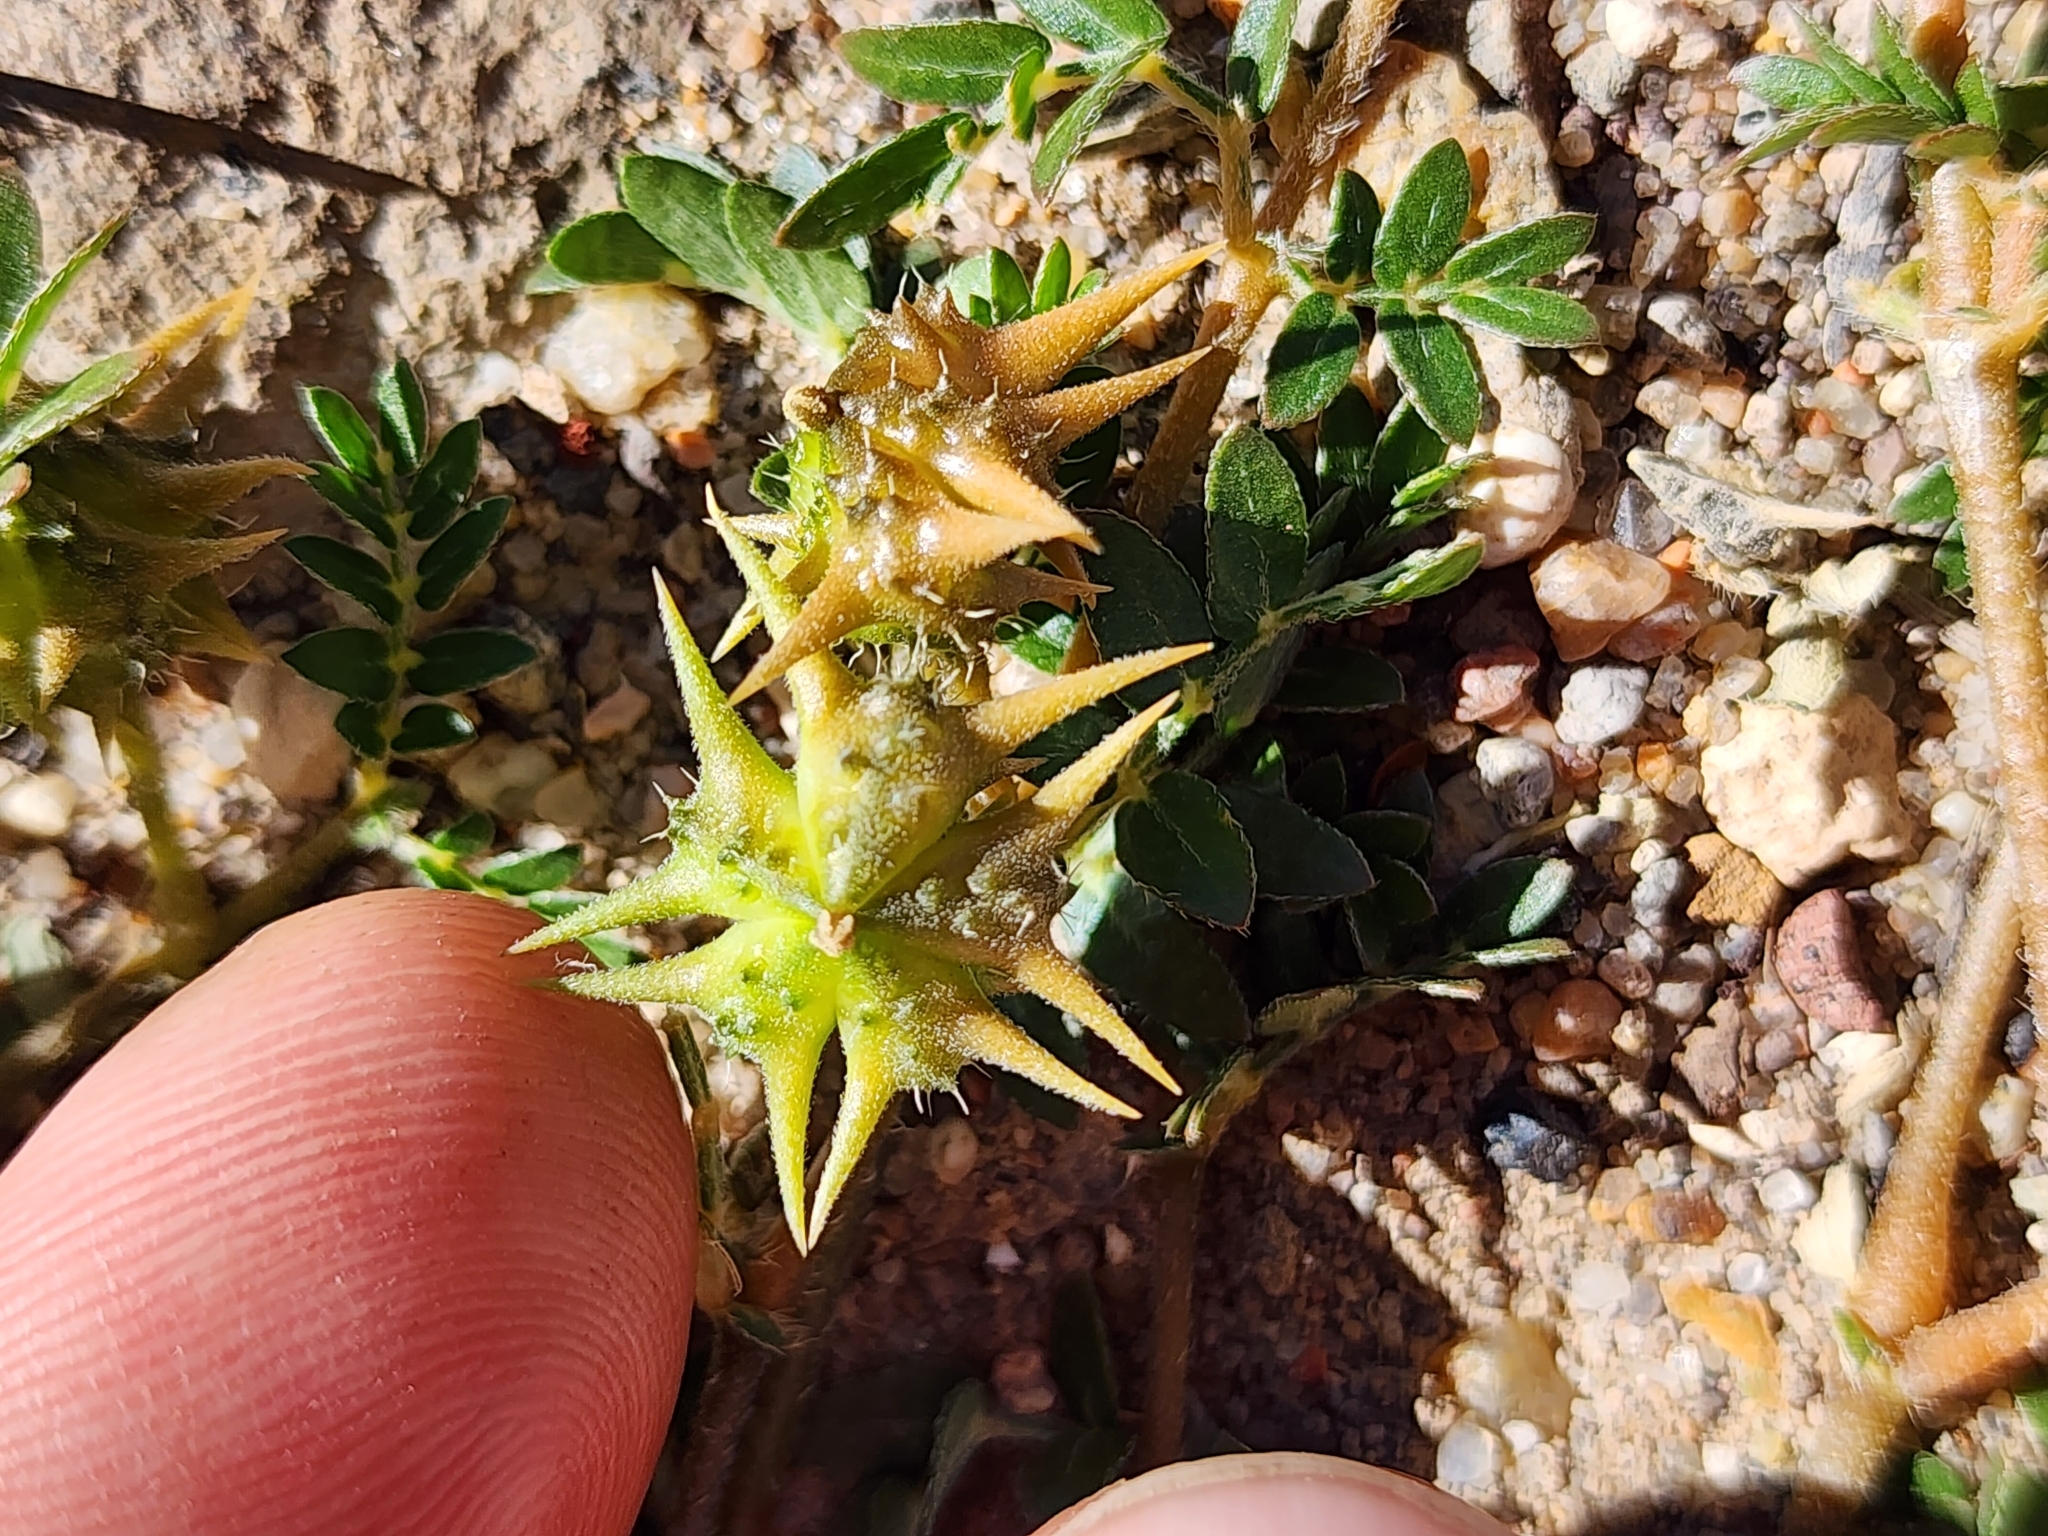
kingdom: Plantae
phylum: Tracheophyta
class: Magnoliopsida
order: Zygophyllales
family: Zygophyllaceae
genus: Tribulus
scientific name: Tribulus terrestris
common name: Puncturevine
